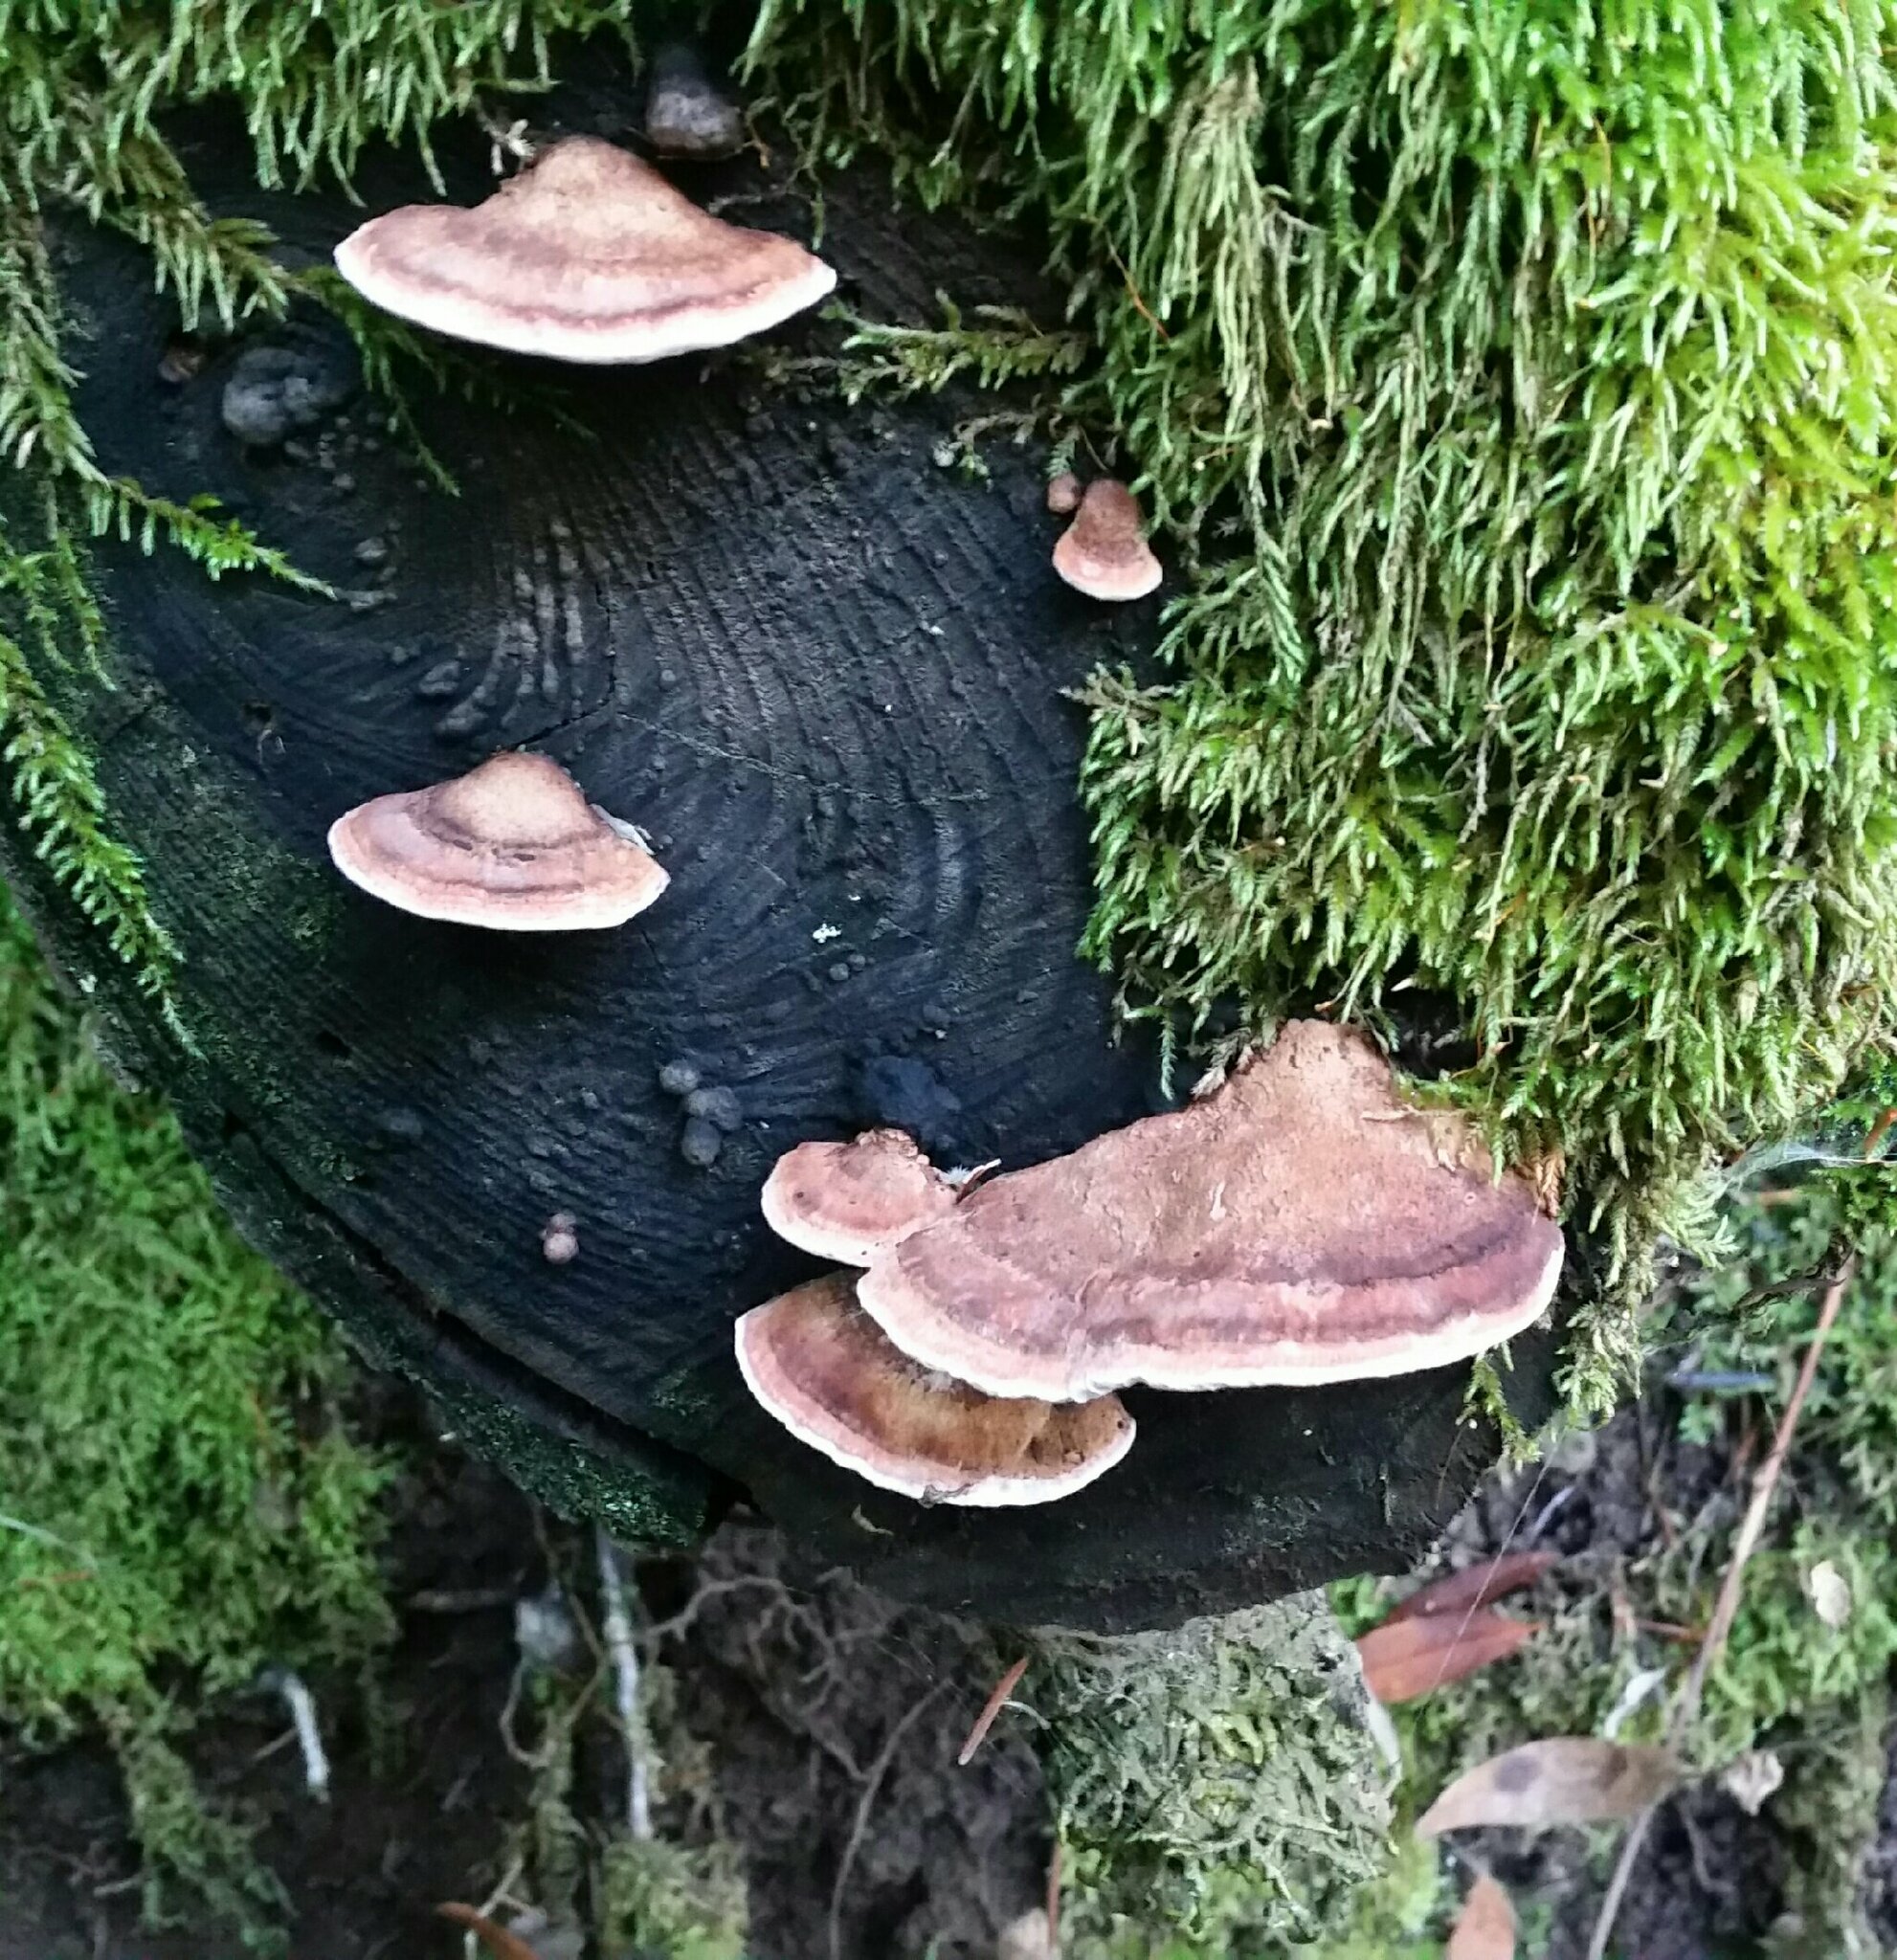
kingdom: Fungi
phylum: Basidiomycota
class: Agaricomycetes
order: Polyporales
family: Fomitopsidaceae
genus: Rhodofomes
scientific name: Rhodofomes cajanderi
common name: Rosy conk
